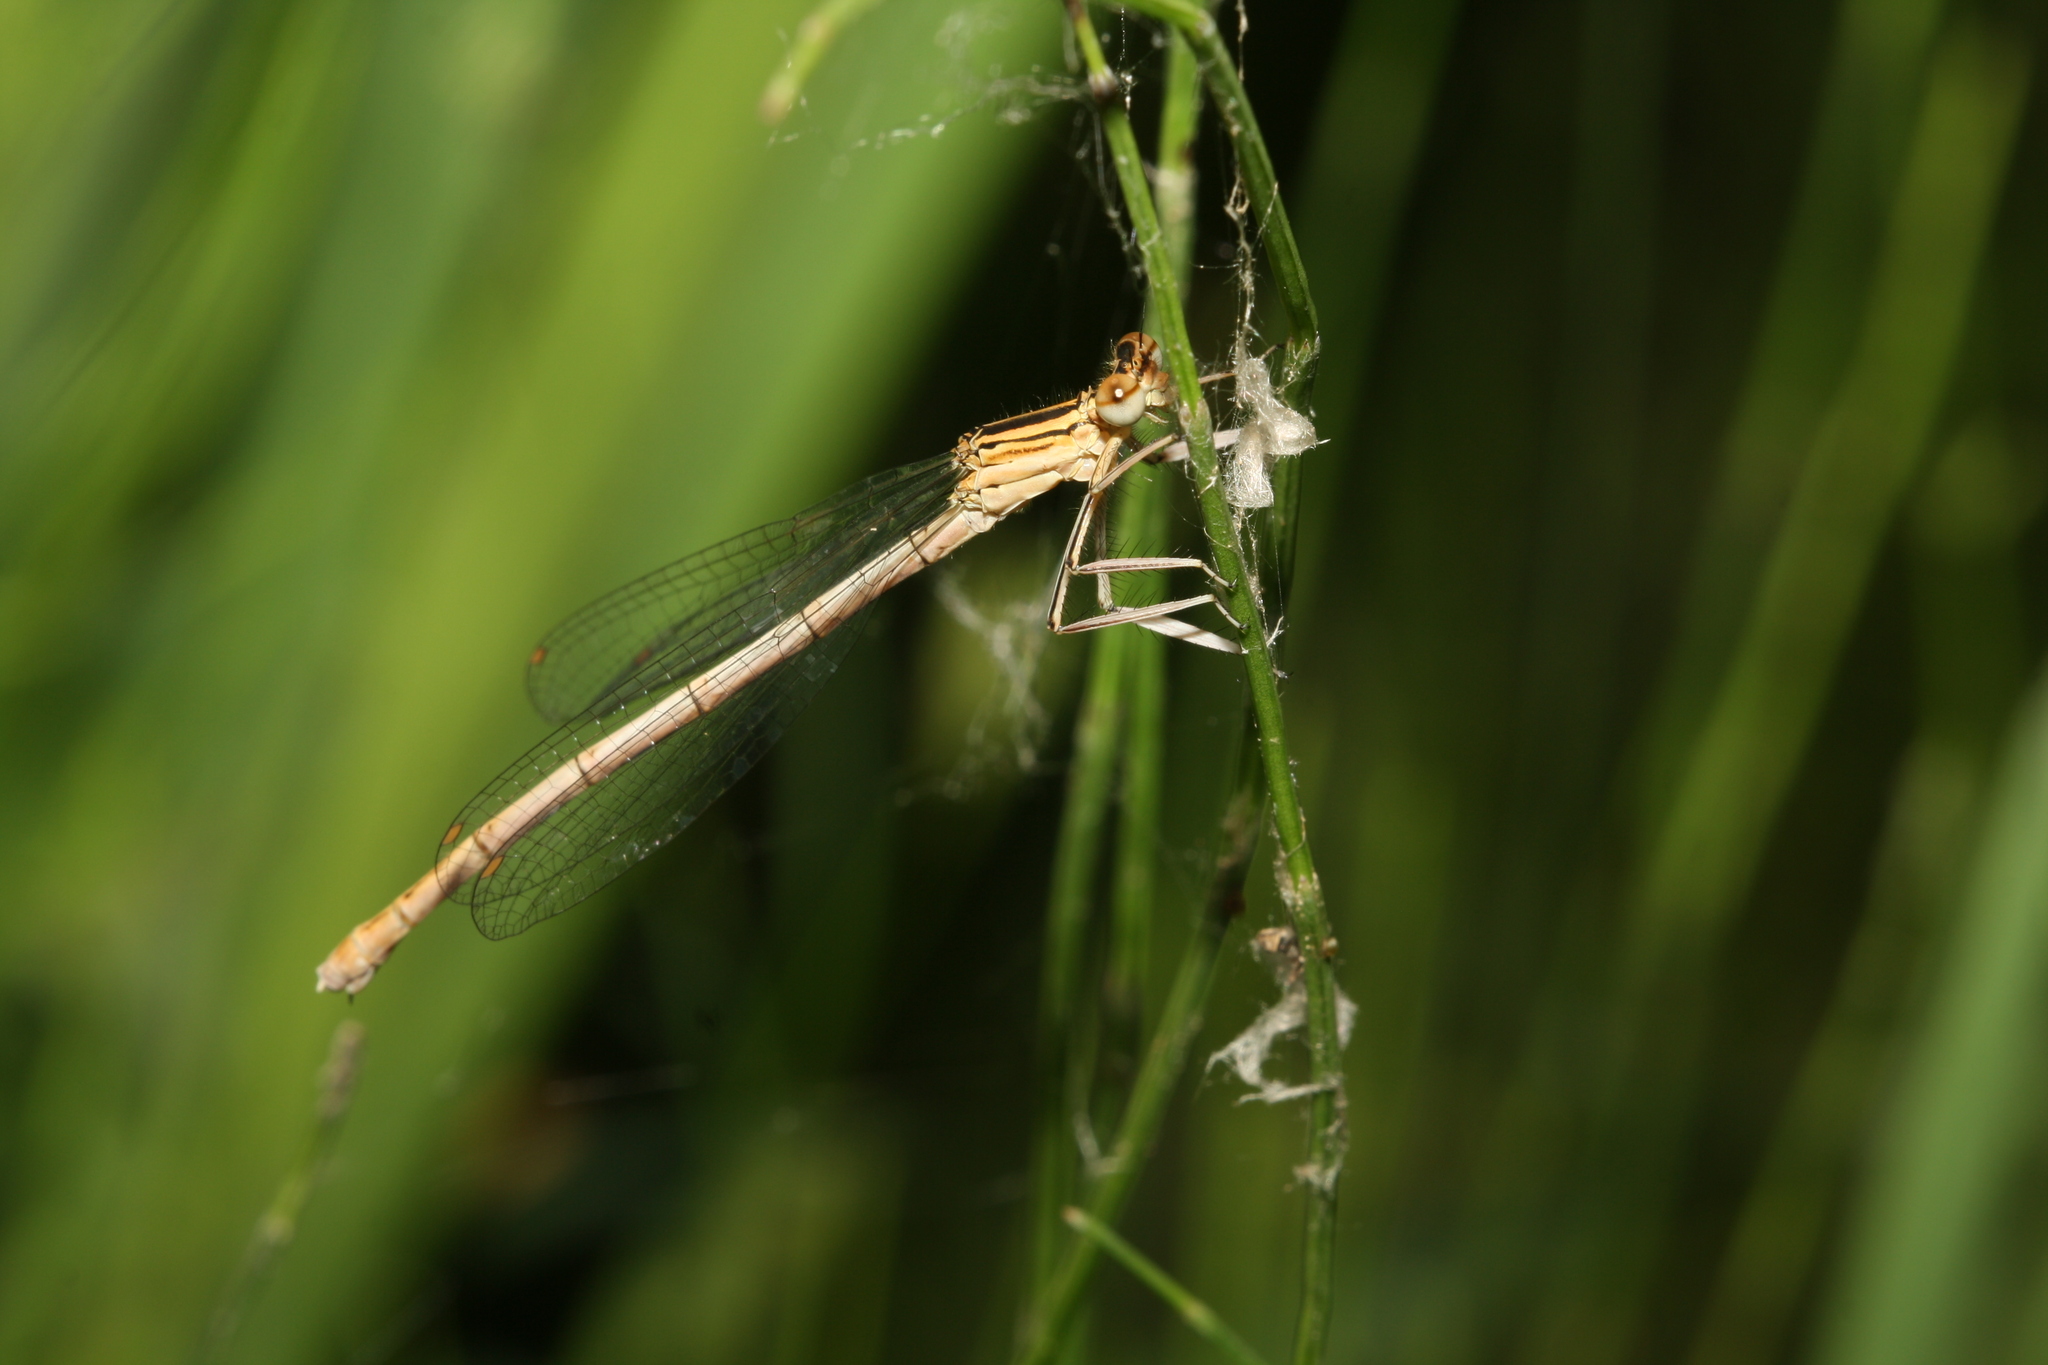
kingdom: Animalia
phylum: Arthropoda
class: Insecta
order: Odonata
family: Platycnemididae
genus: Platycnemis
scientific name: Platycnemis pennipes
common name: White-legged damselfly
